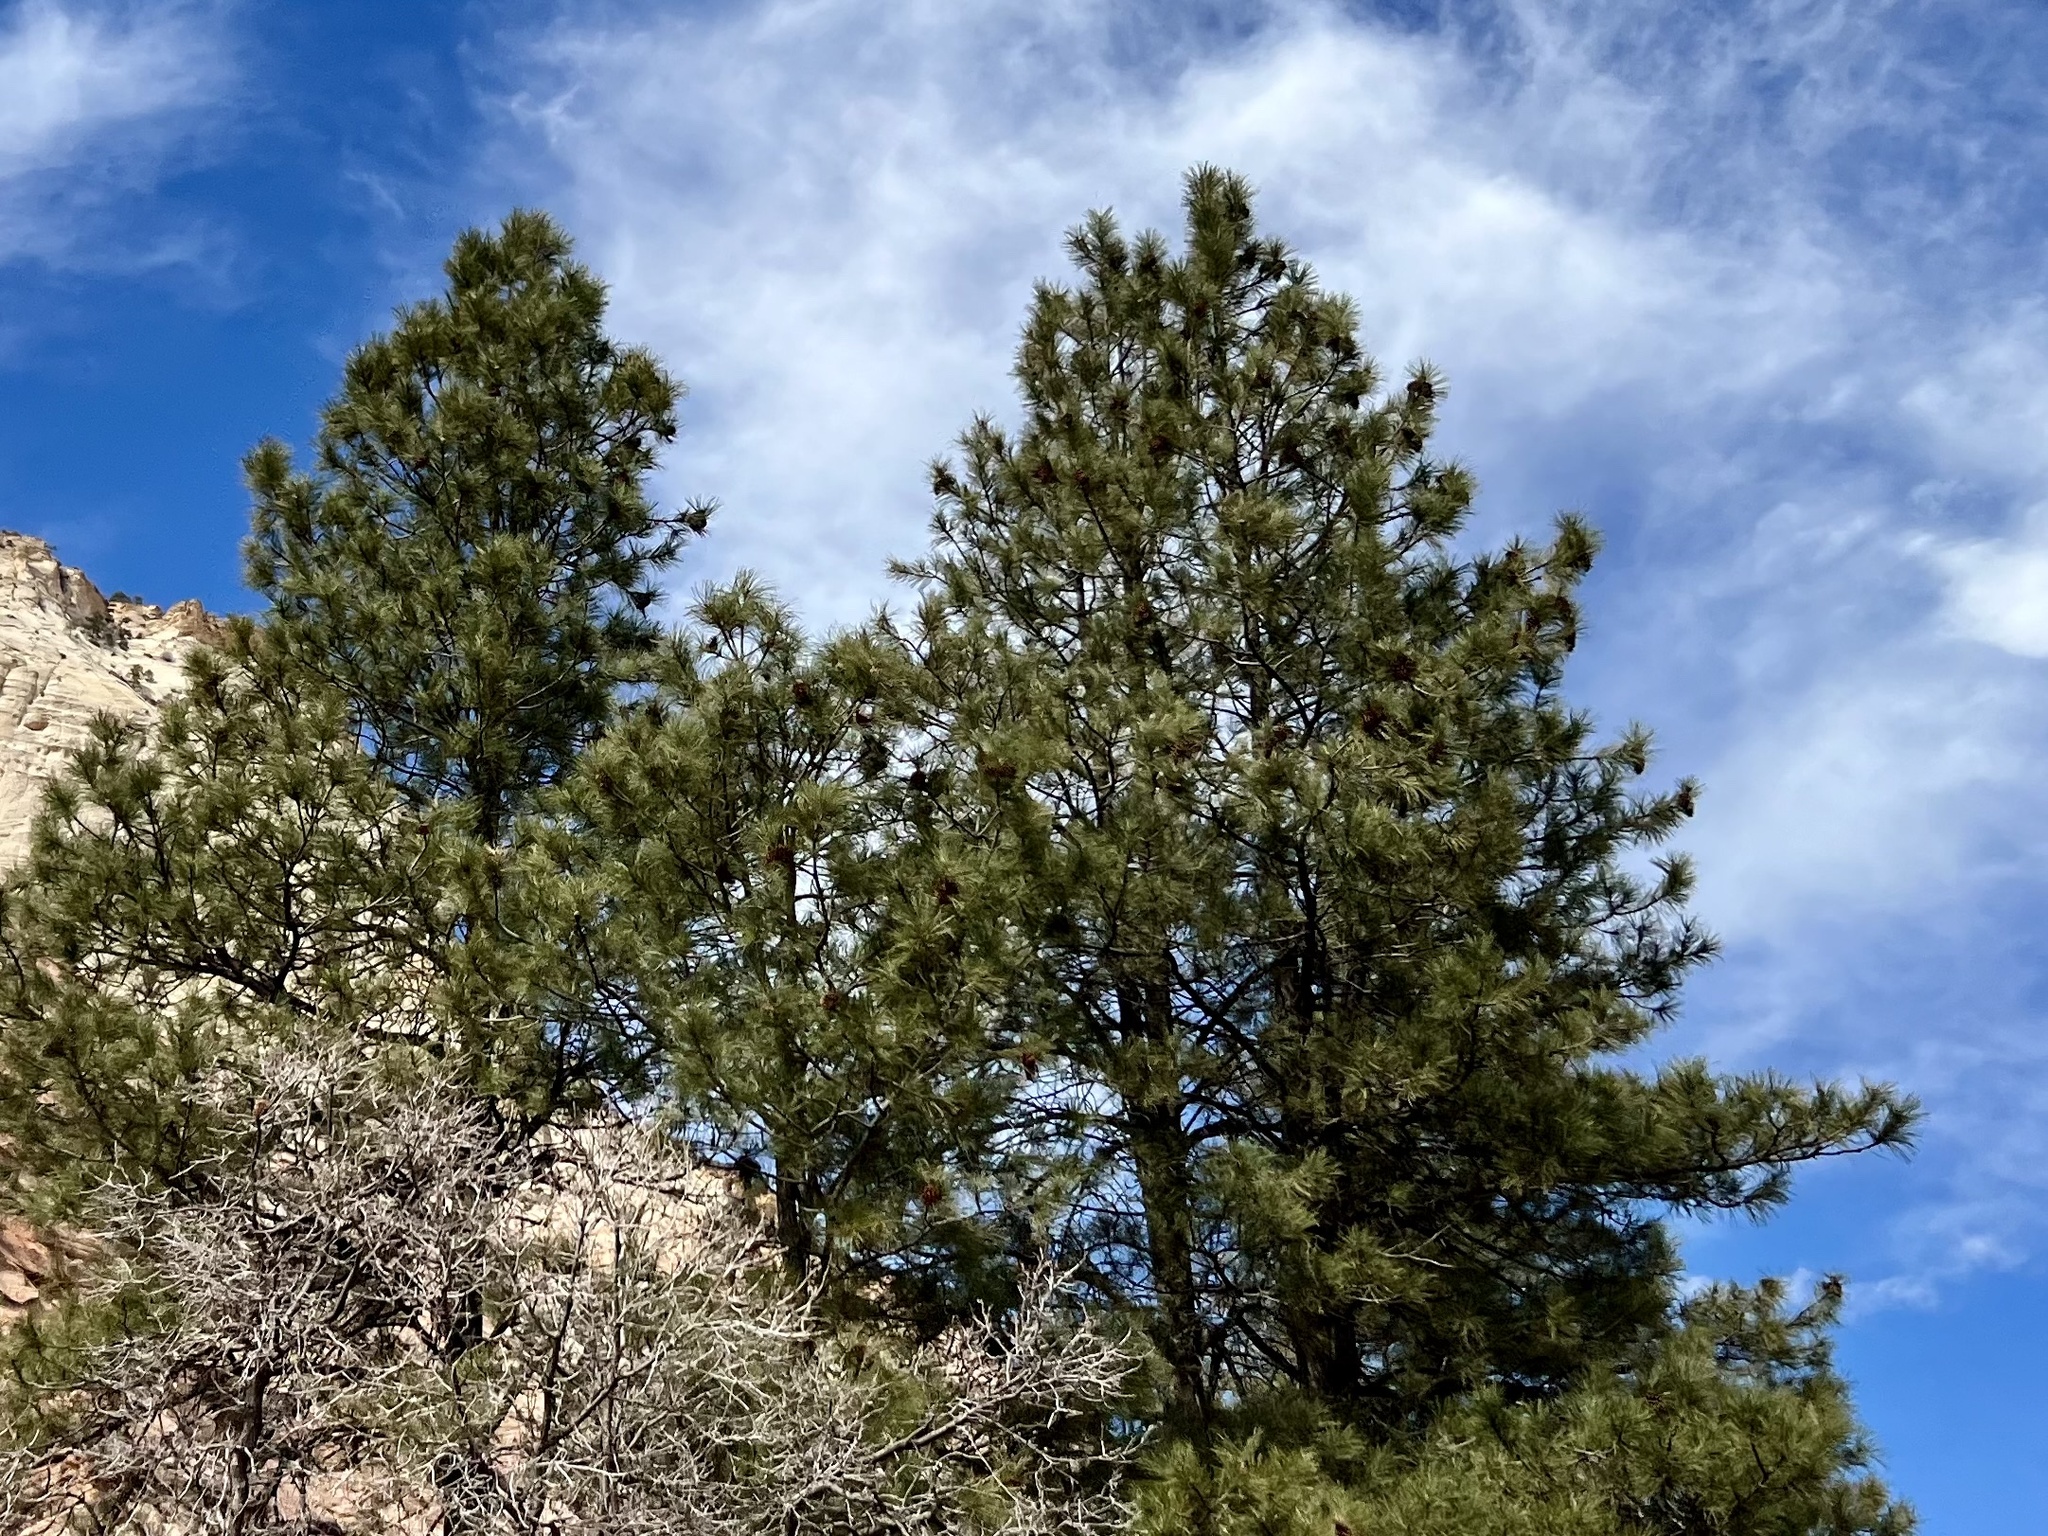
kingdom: Plantae
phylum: Tracheophyta
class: Pinopsida
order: Pinales
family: Pinaceae
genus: Pinus
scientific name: Pinus ponderosa
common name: Western yellow-pine
